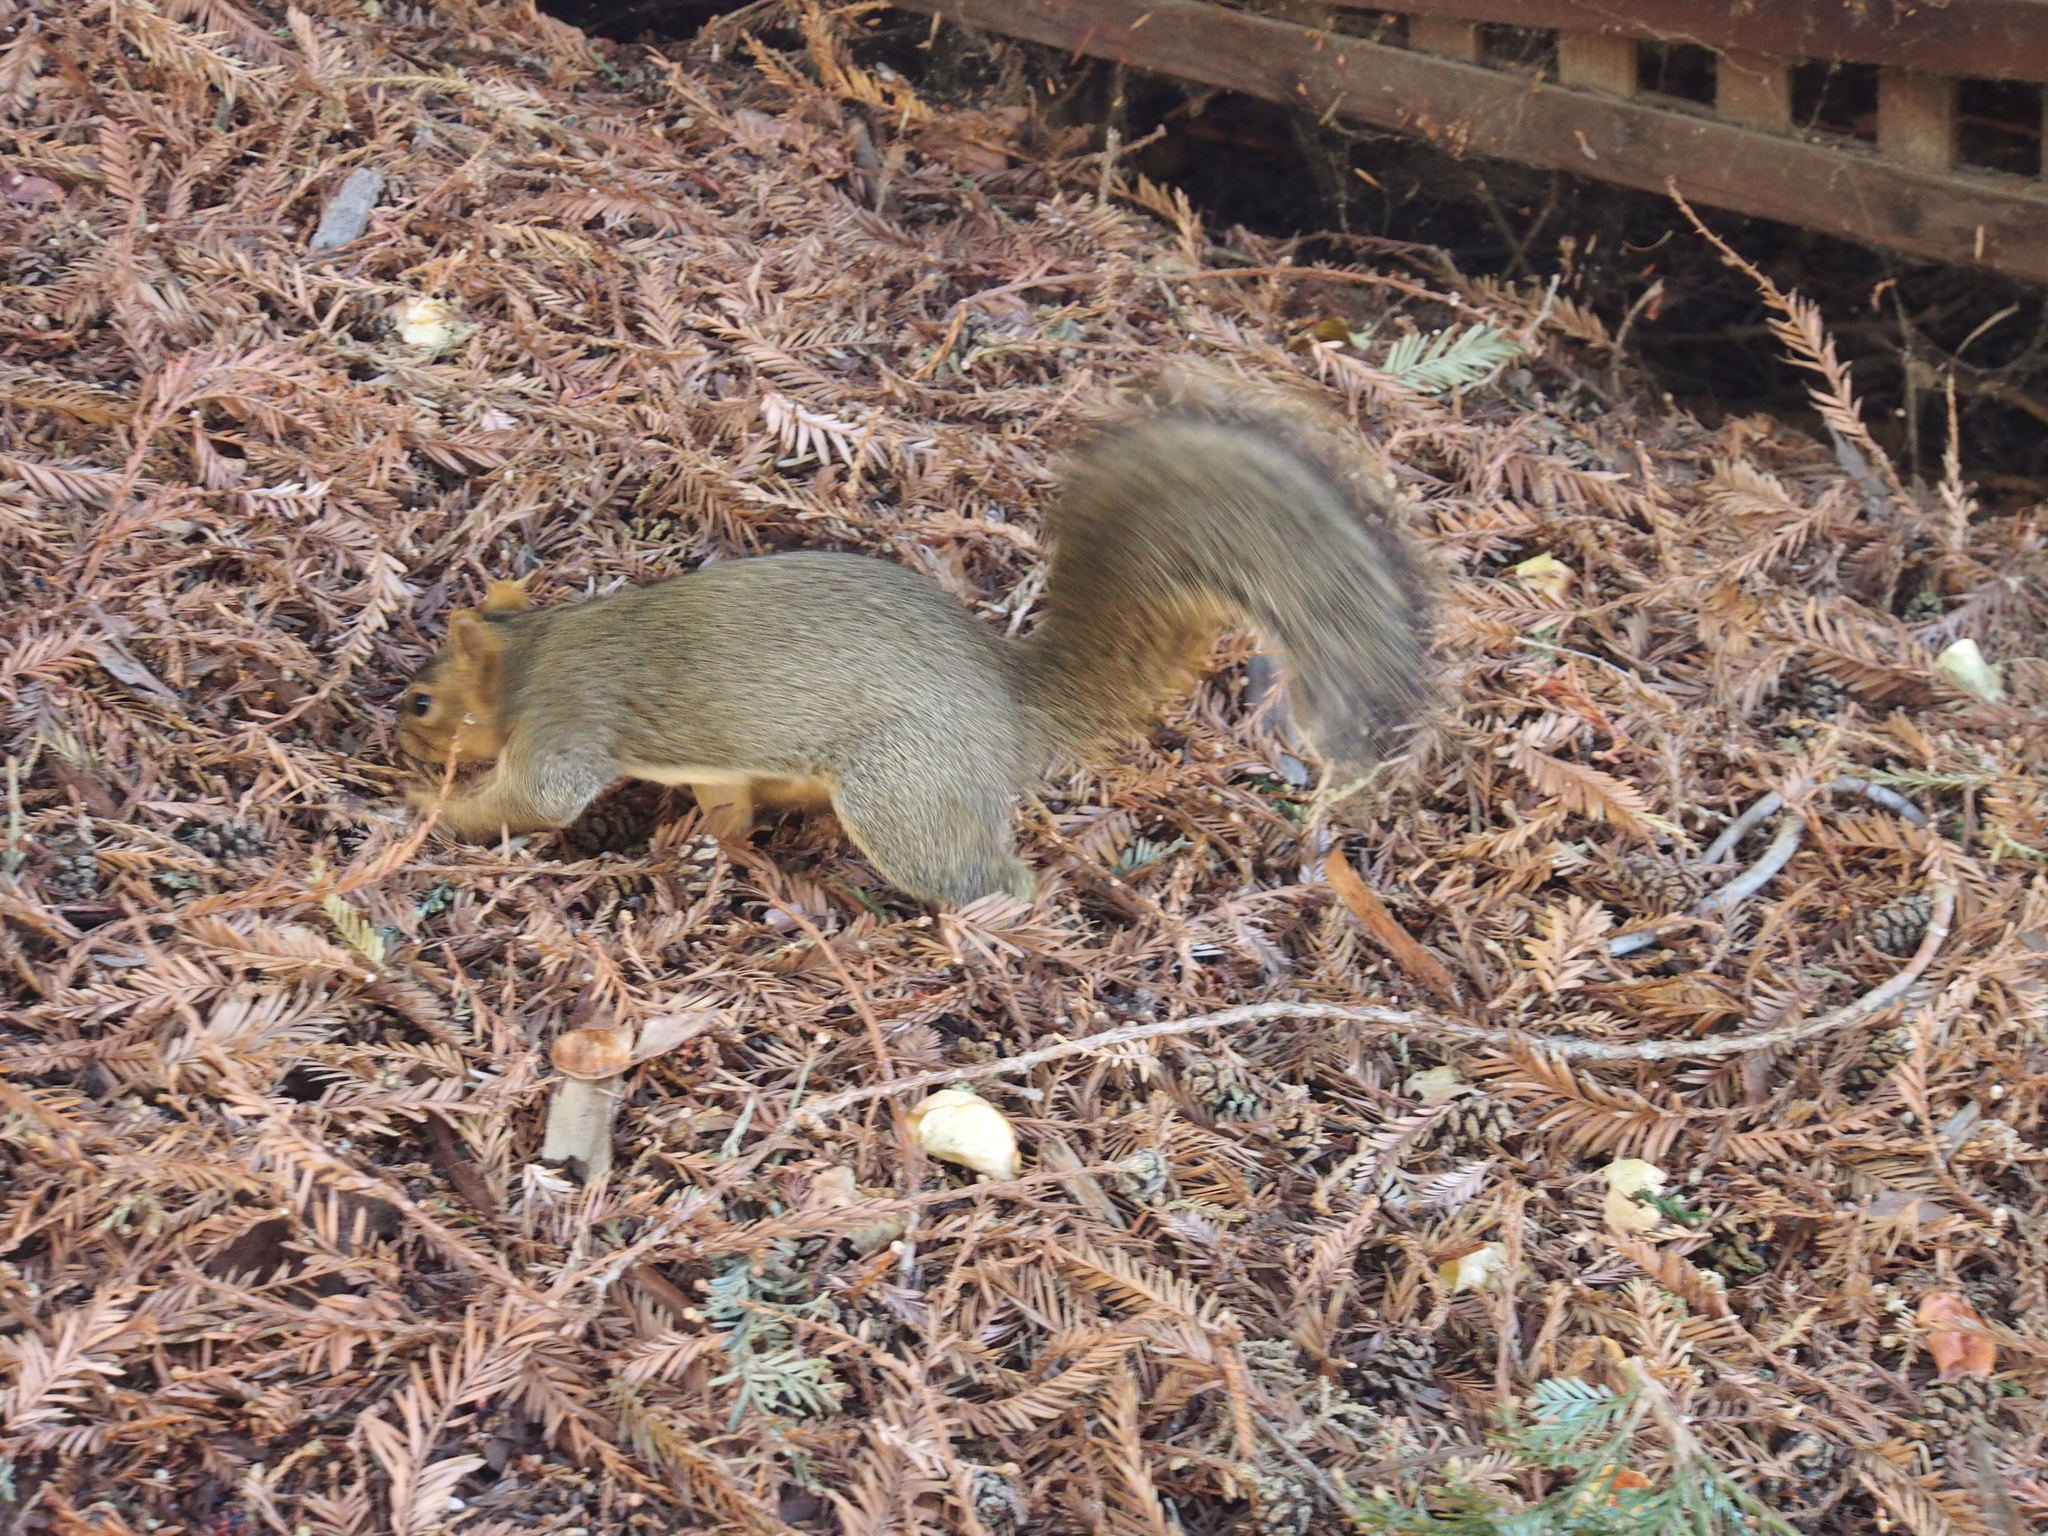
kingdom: Animalia
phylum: Chordata
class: Mammalia
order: Rodentia
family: Sciuridae
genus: Sciurus
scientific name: Sciurus niger
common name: Fox squirrel
